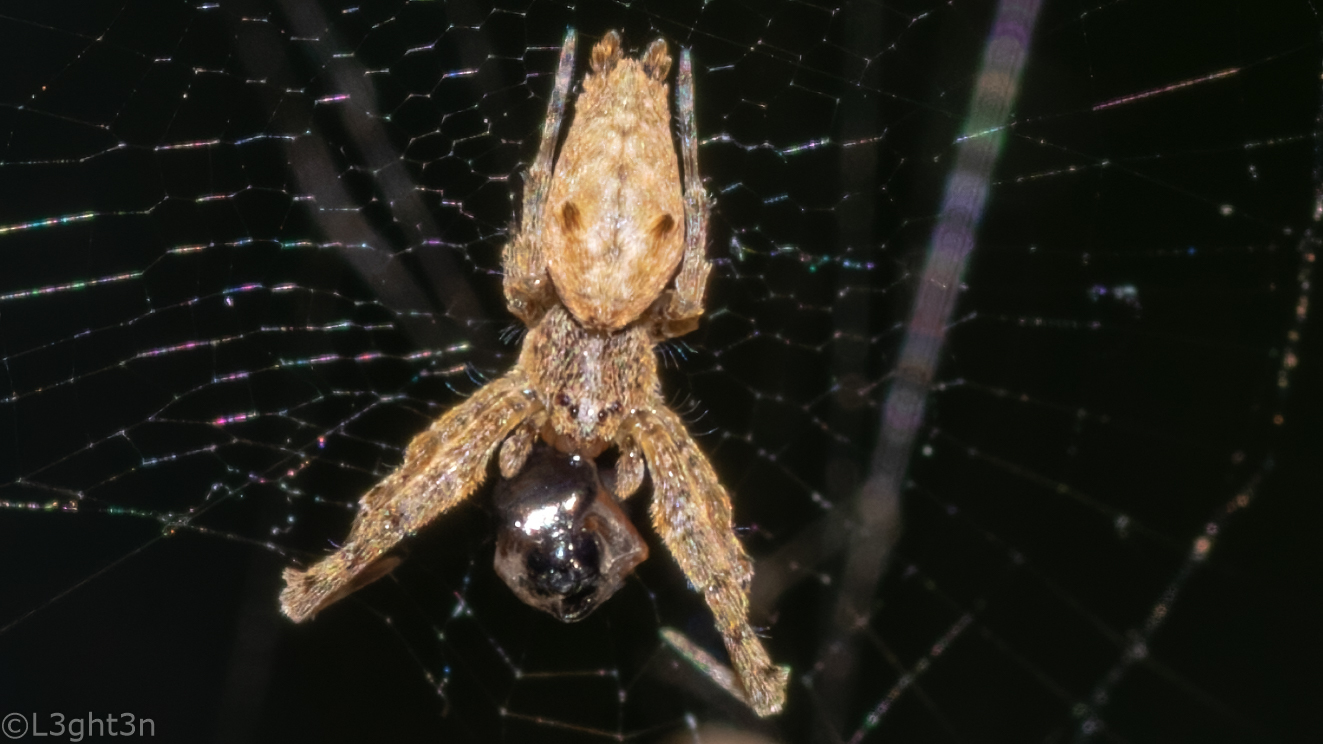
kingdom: Animalia
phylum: Arthropoda
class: Arachnida
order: Araneae
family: Uloboridae
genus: Uloborus
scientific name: Uloborus plumipes
